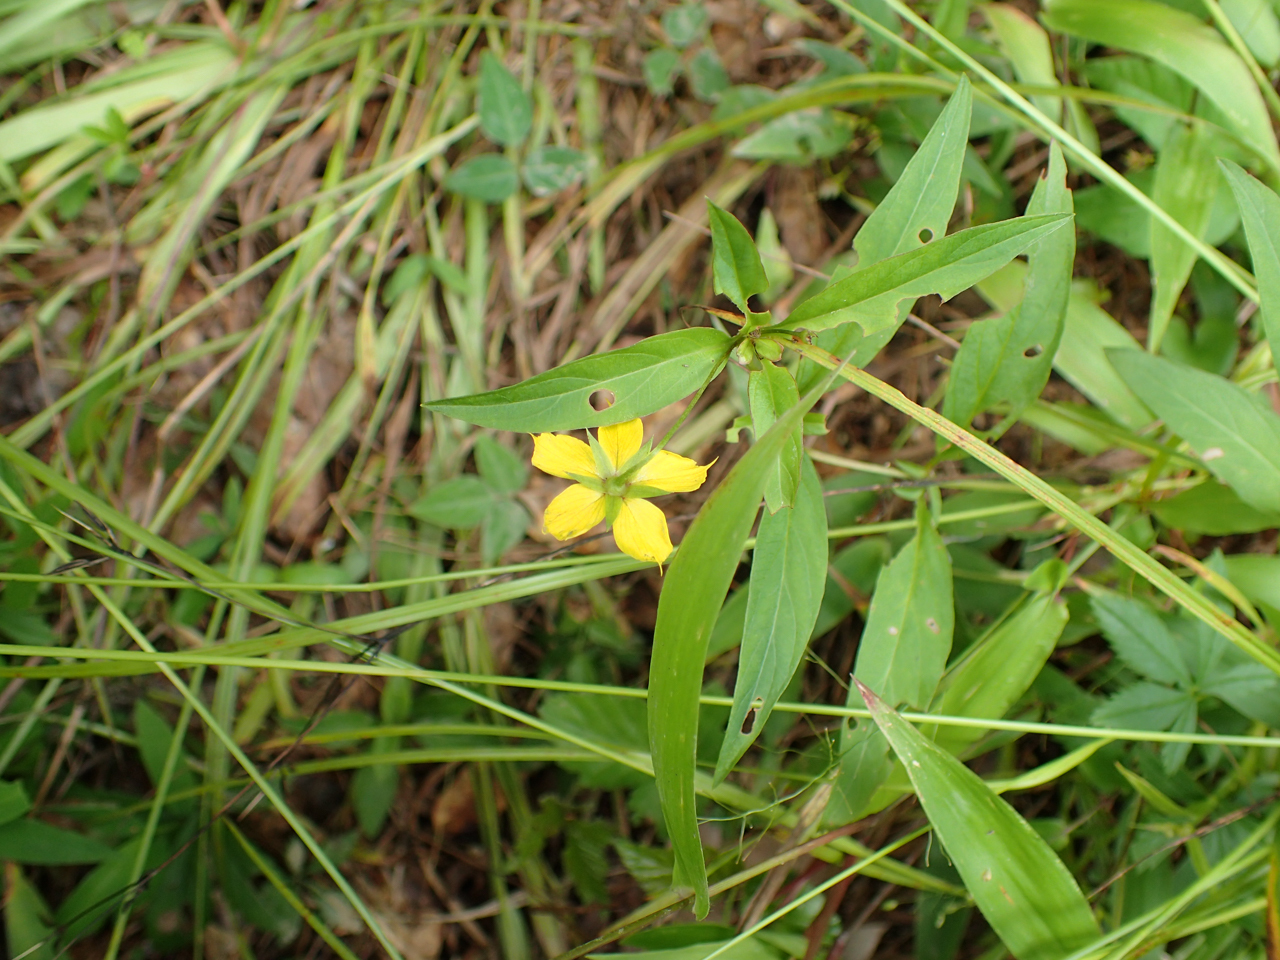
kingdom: Plantae
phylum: Tracheophyta
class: Magnoliopsida
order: Ericales
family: Primulaceae
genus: Lysimachia
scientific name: Lysimachia lanceolata
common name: Lance-leaved loosestrife
